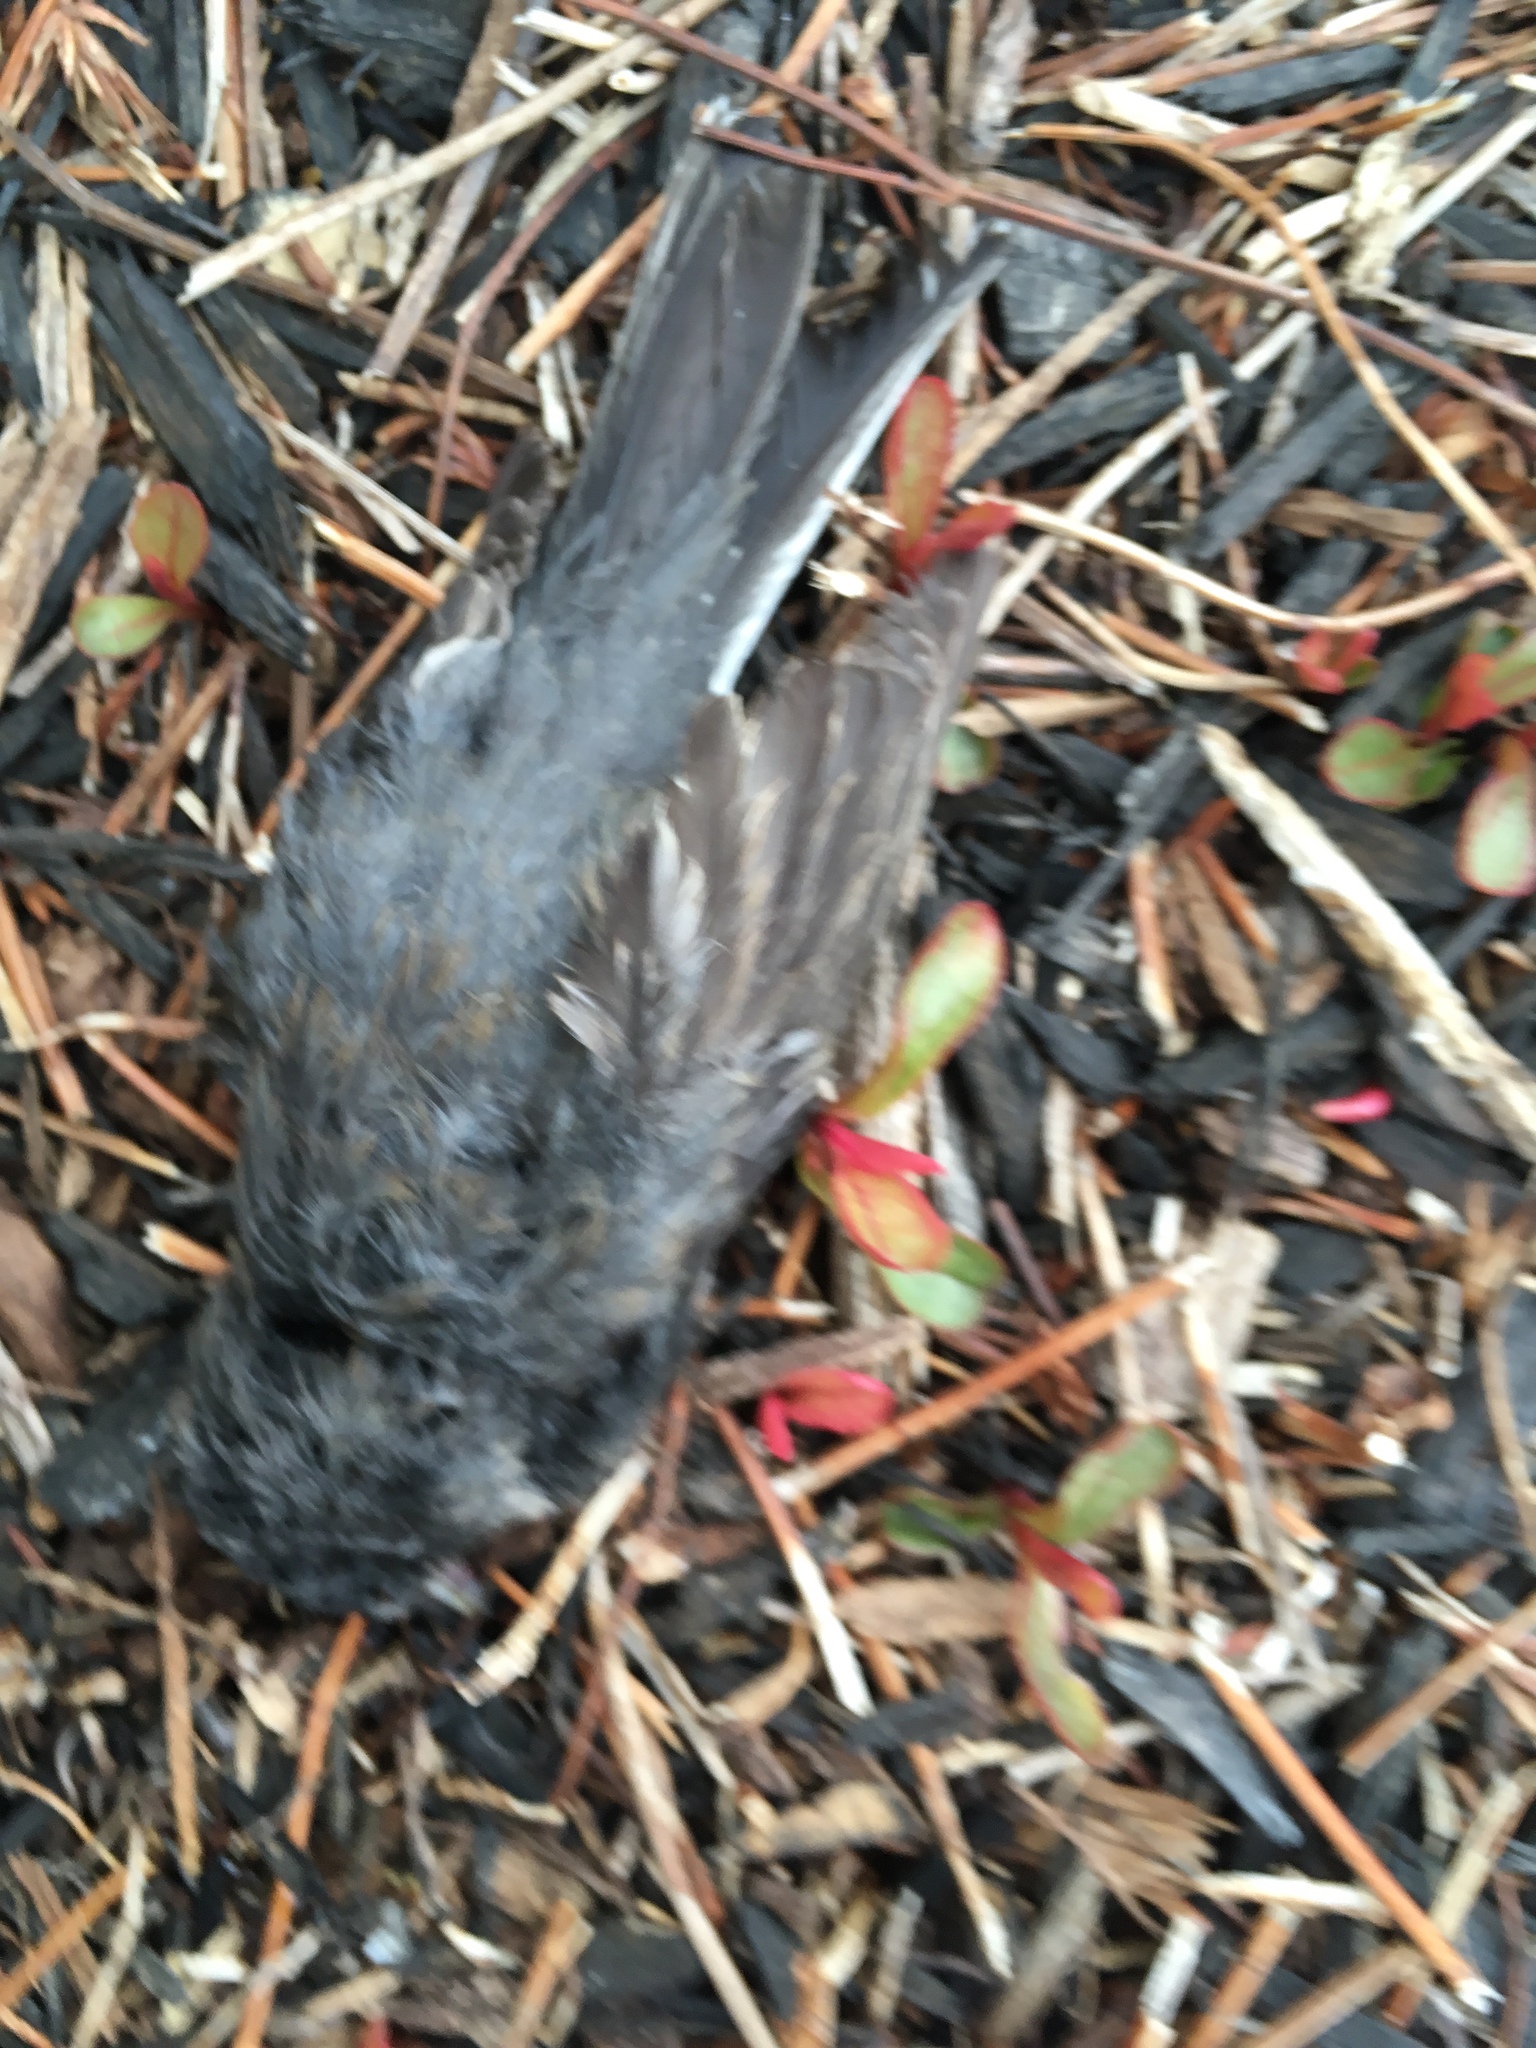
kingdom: Animalia
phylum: Chordata
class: Aves
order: Passeriformes
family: Passerellidae
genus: Junco
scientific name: Junco hyemalis
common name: Dark-eyed junco
